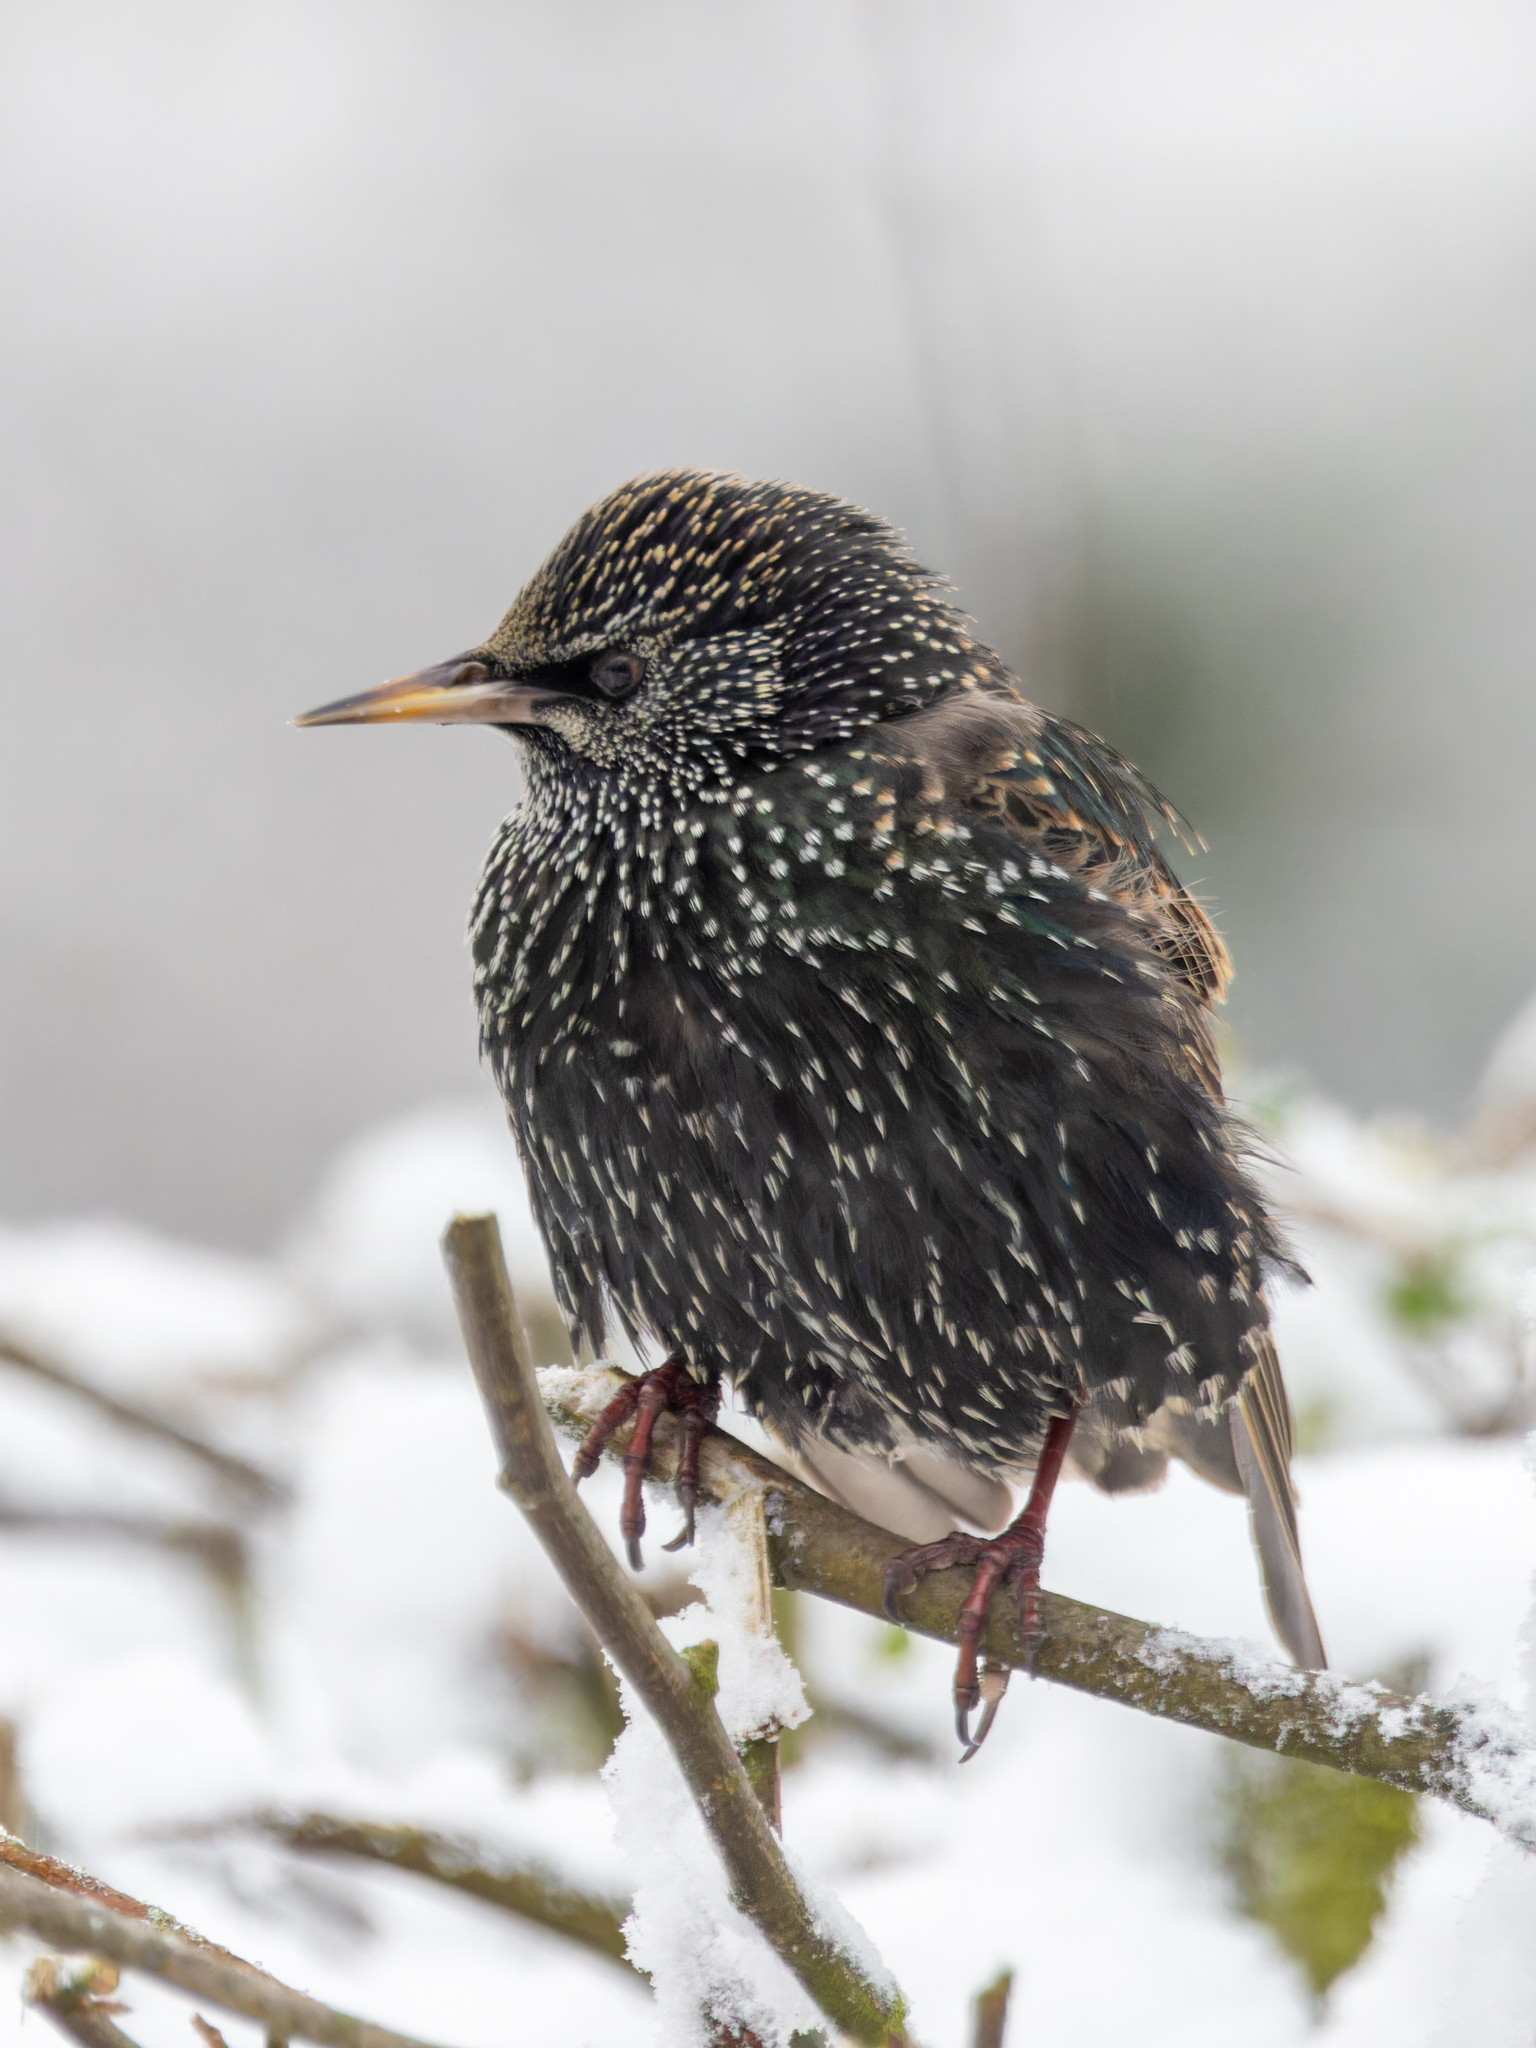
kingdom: Animalia
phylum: Chordata
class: Aves
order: Passeriformes
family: Sturnidae
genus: Sturnus
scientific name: Sturnus vulgaris
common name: Common starling
